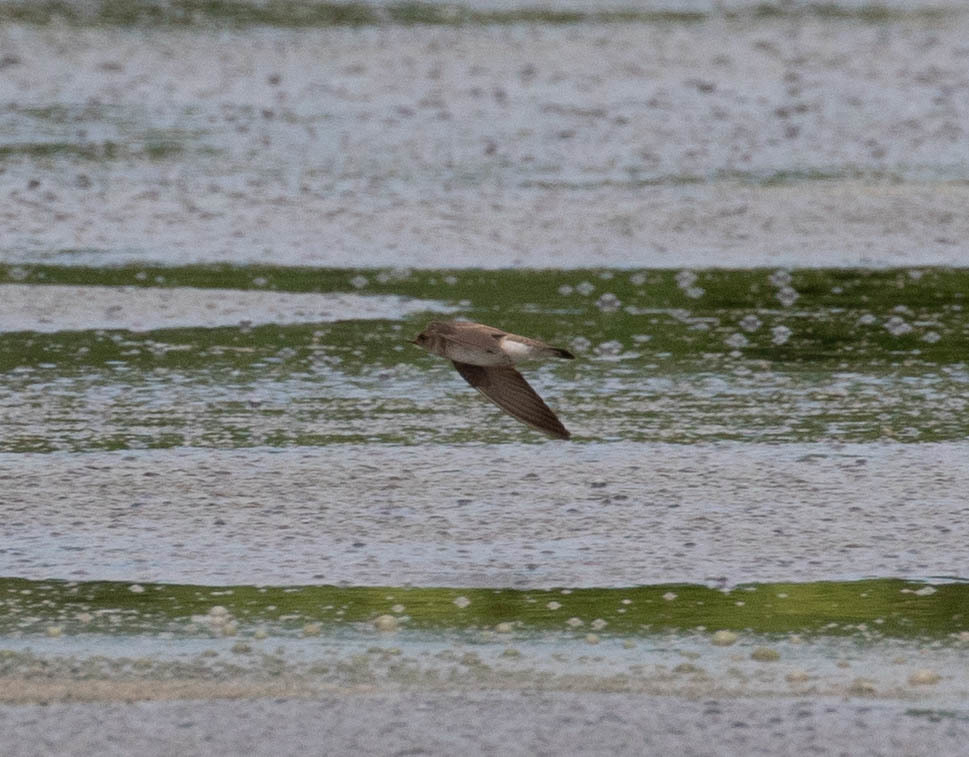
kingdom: Animalia
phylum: Chordata
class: Aves
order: Passeriformes
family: Hirundinidae
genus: Stelgidopteryx
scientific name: Stelgidopteryx serripennis
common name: Northern rough-winged swallow
